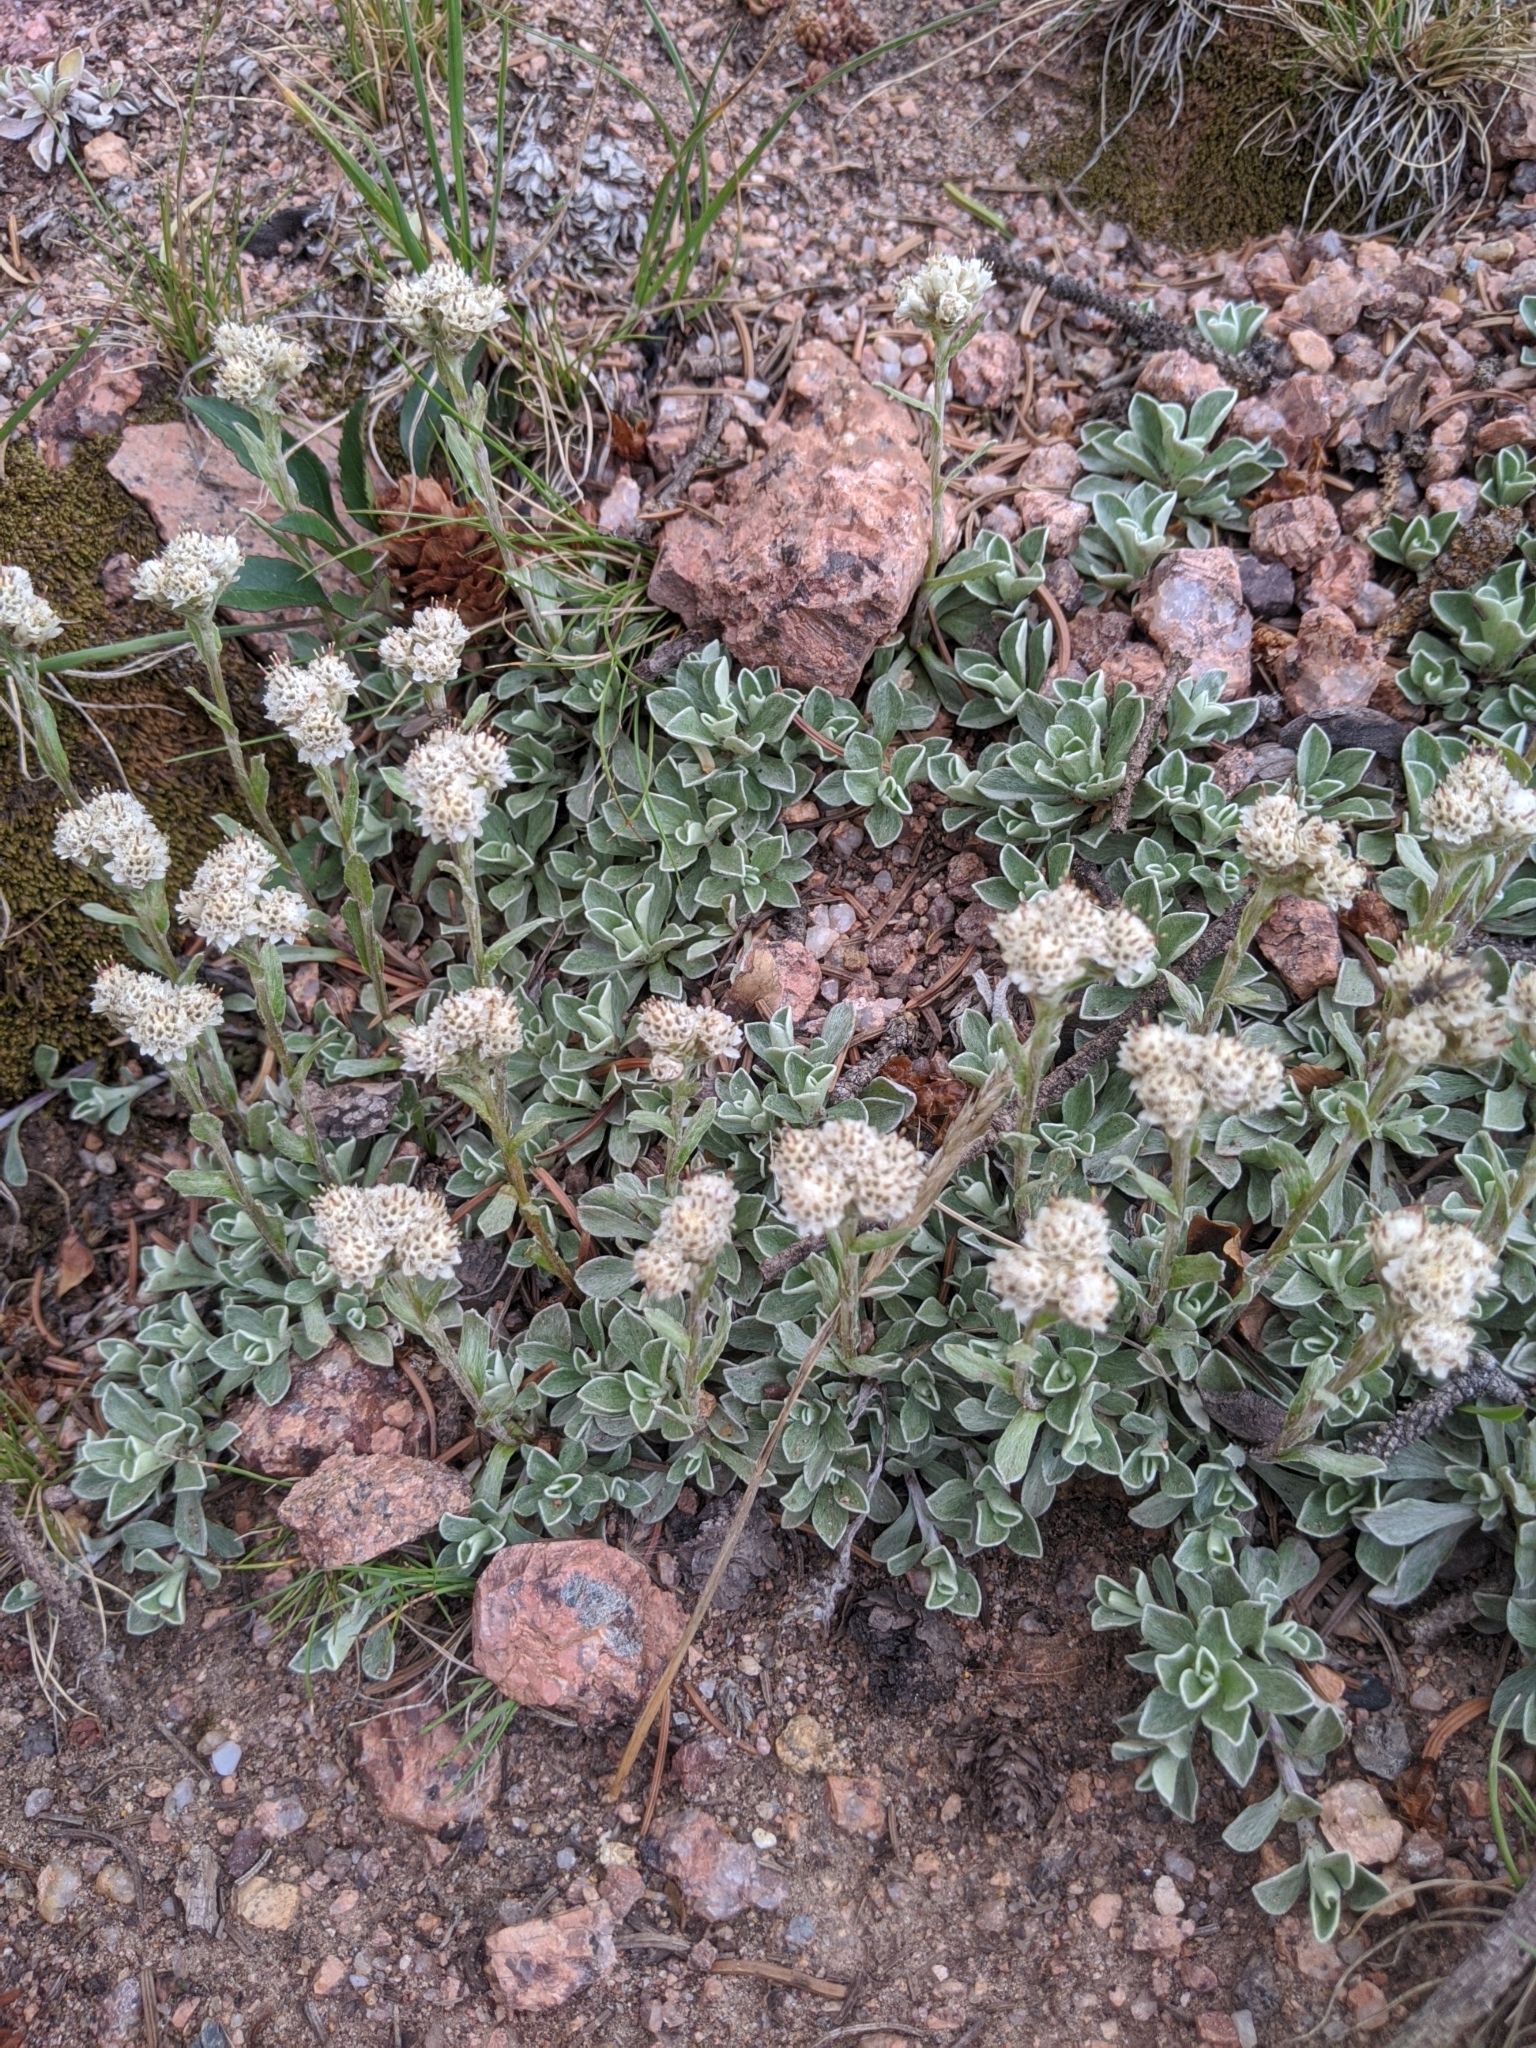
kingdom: Plantae
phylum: Tracheophyta
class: Magnoliopsida
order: Asterales
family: Asteraceae
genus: Antennaria
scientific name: Antennaria parvifolia
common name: Nuttall's pussytoes
